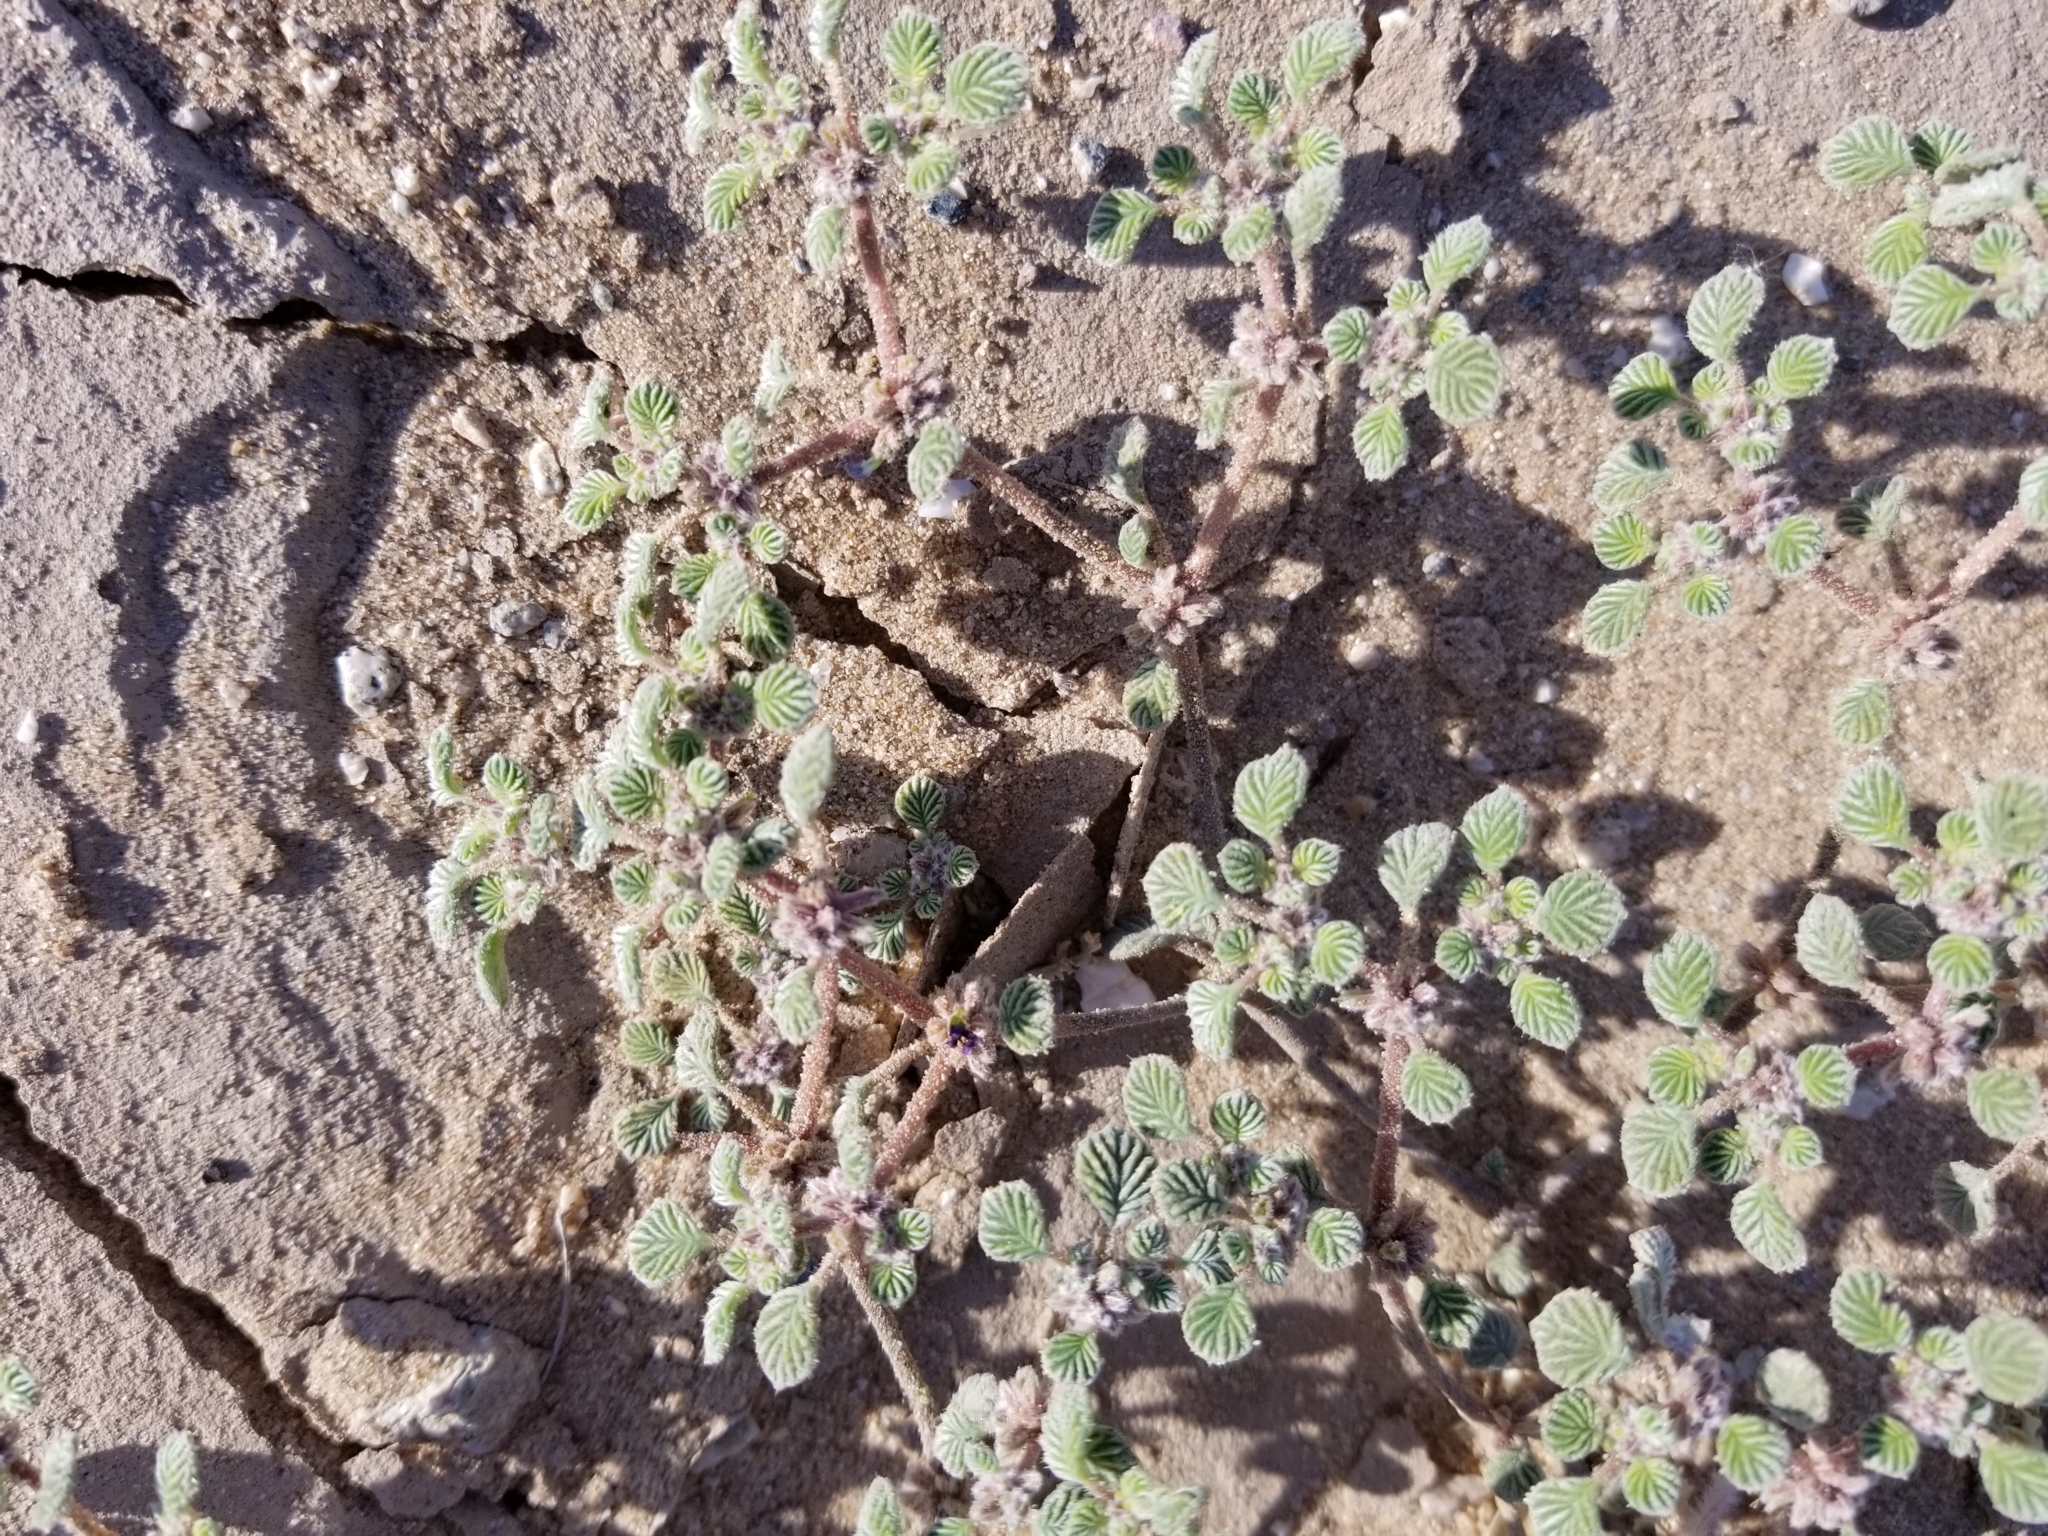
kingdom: Plantae
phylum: Tracheophyta
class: Magnoliopsida
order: Boraginales
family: Ehretiaceae
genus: Tiquilia
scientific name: Tiquilia plicata
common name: Fan-leaf tiquilia
